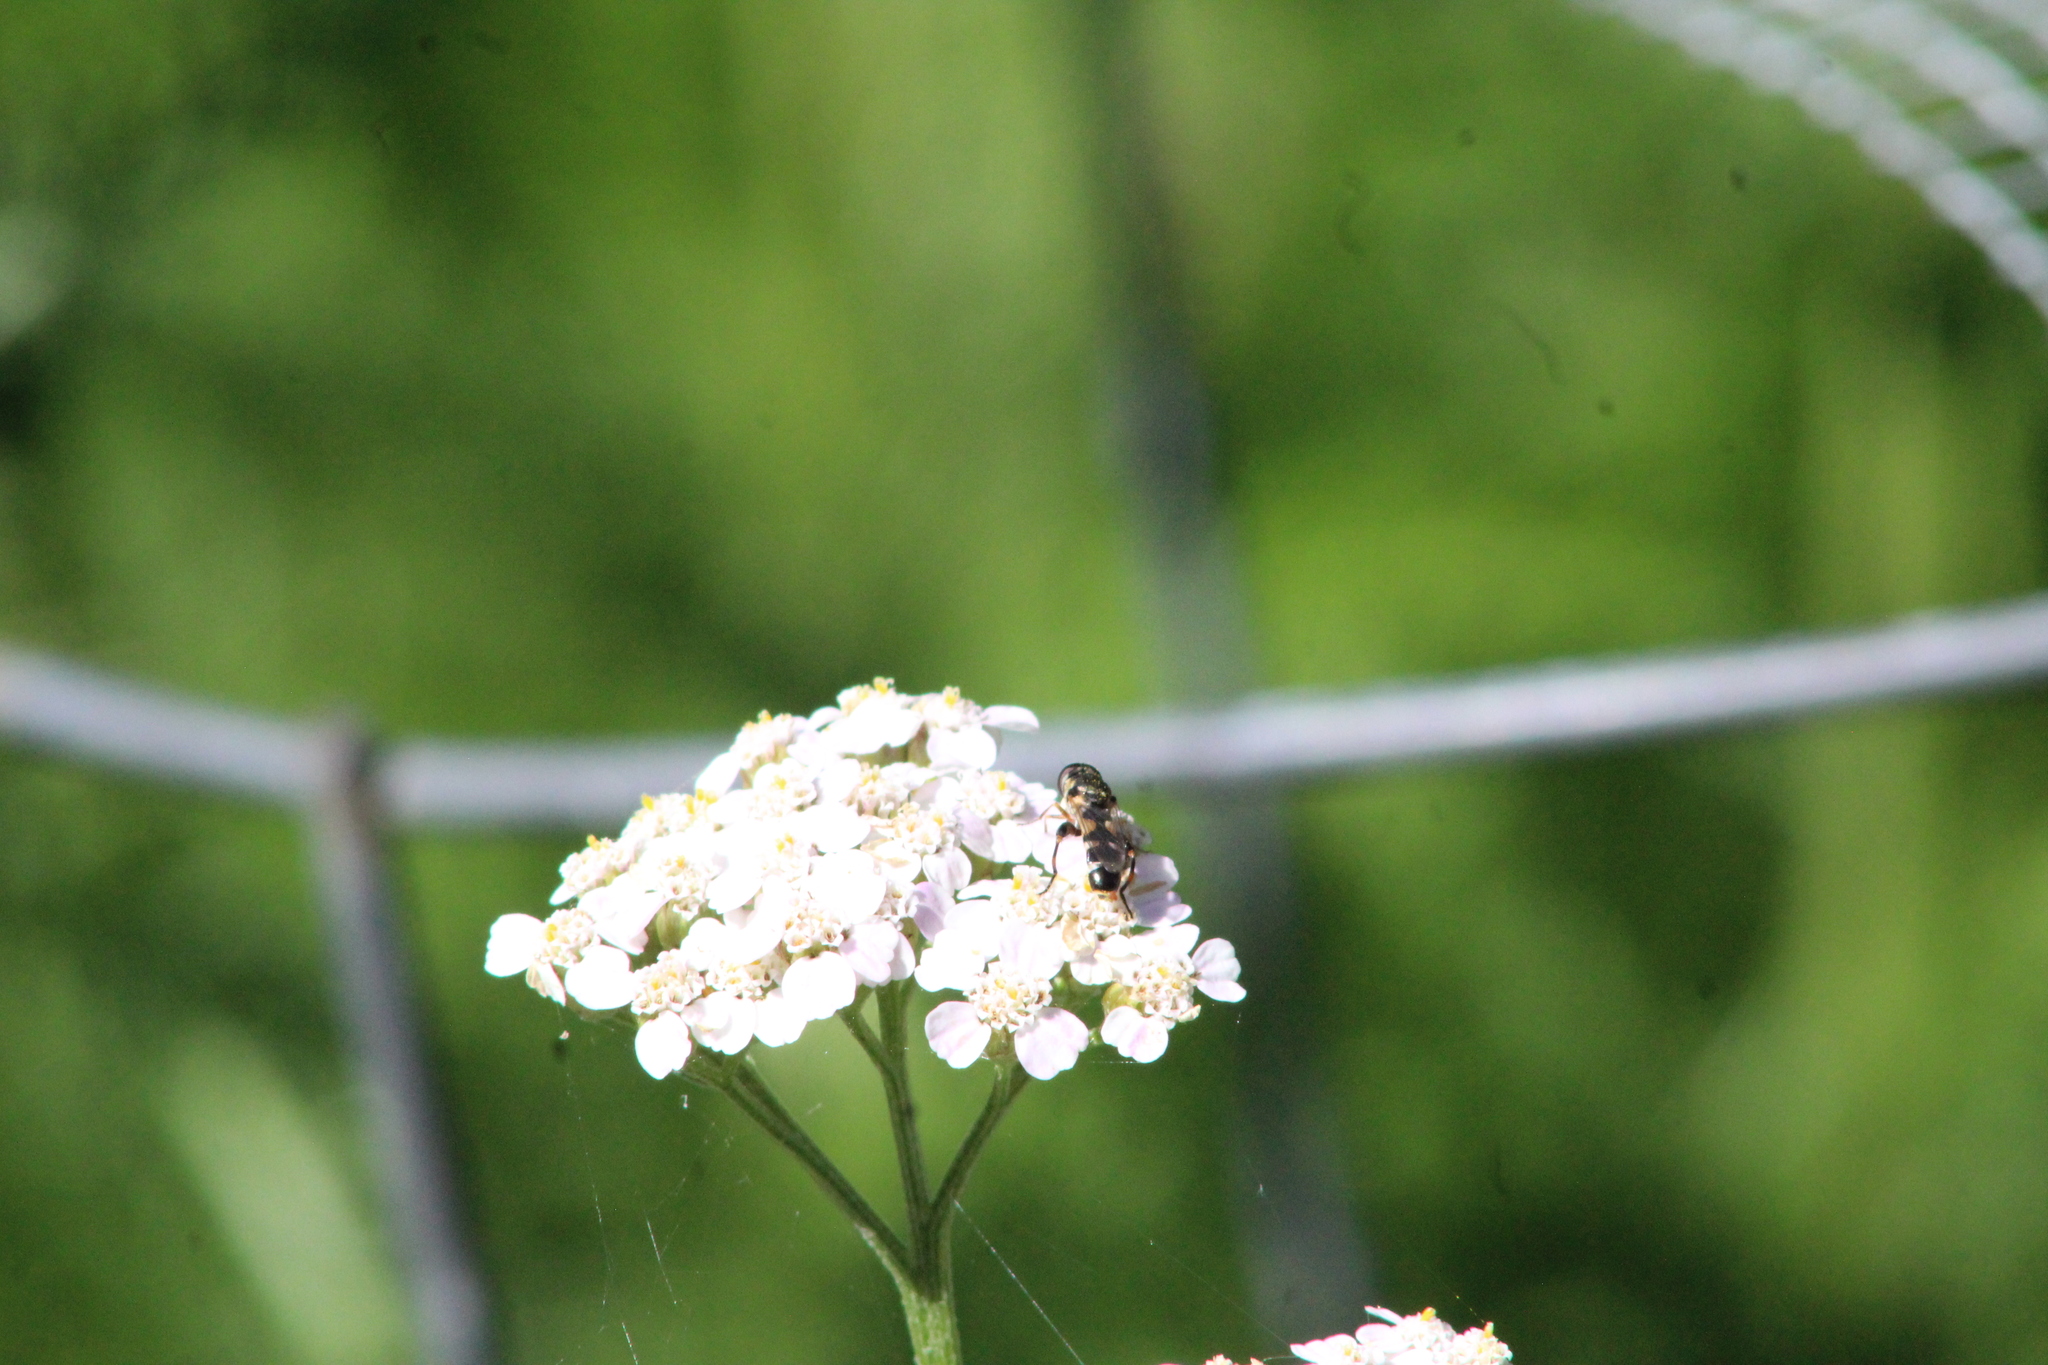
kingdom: Animalia
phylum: Arthropoda
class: Insecta
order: Diptera
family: Syrphidae
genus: Syritta
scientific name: Syritta pipiens
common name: Hover fly
